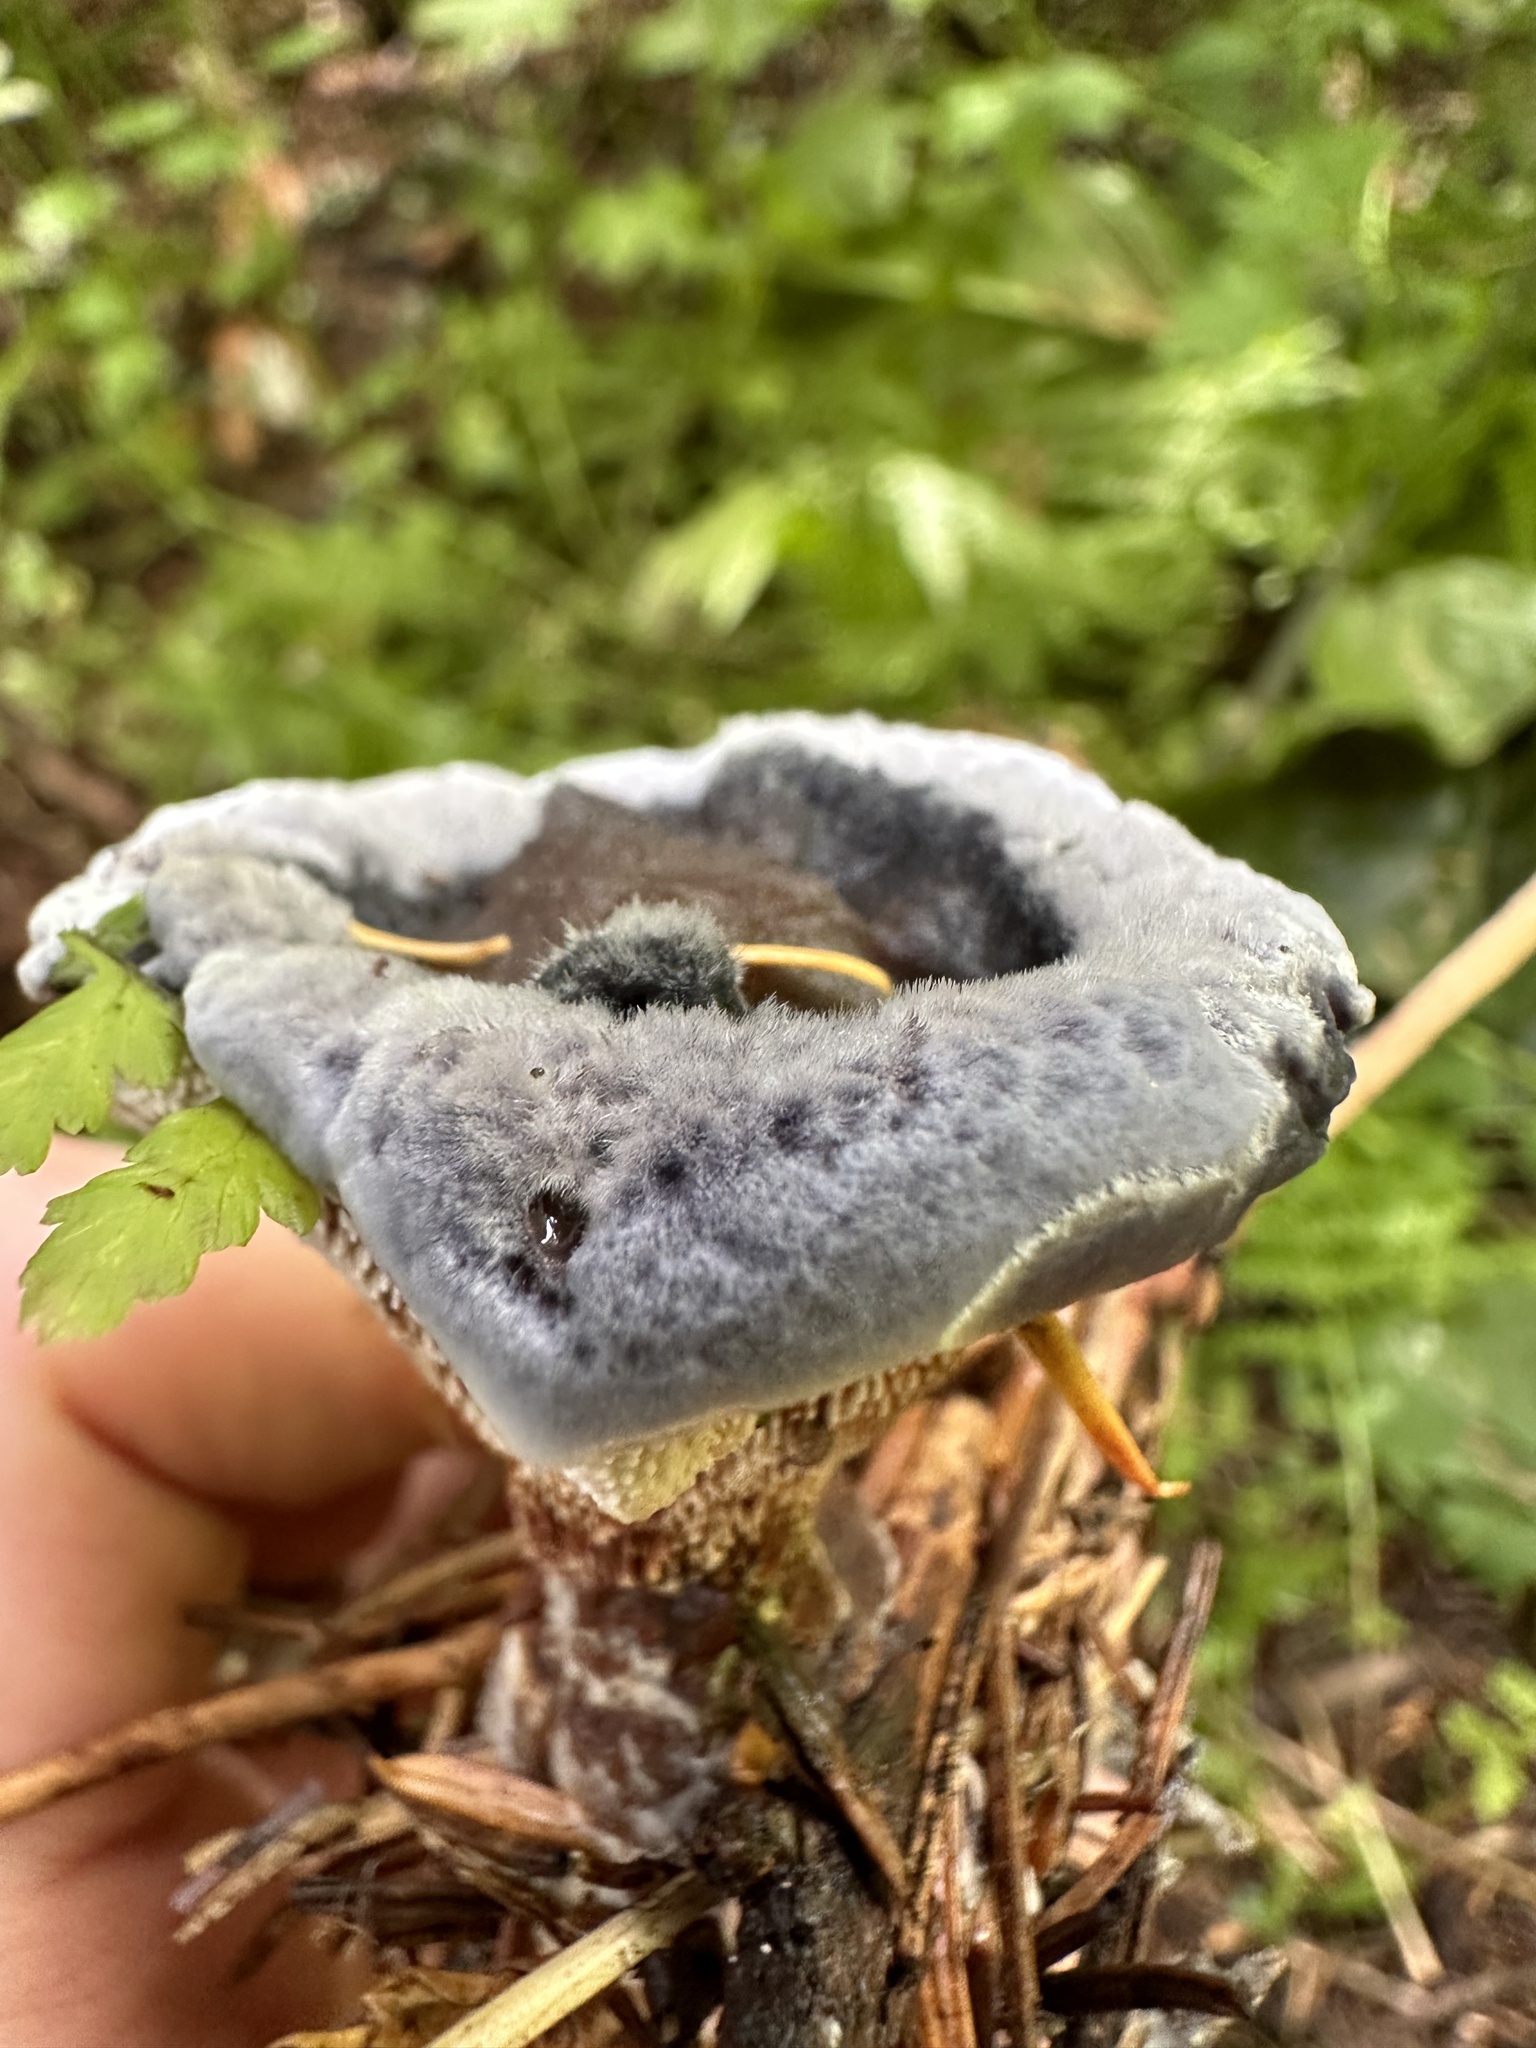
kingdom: Fungi
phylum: Basidiomycota
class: Agaricomycetes
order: Thelephorales
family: Bankeraceae
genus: Hydnellum
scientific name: Hydnellum caeruleum
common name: Blue corky spine fungus
